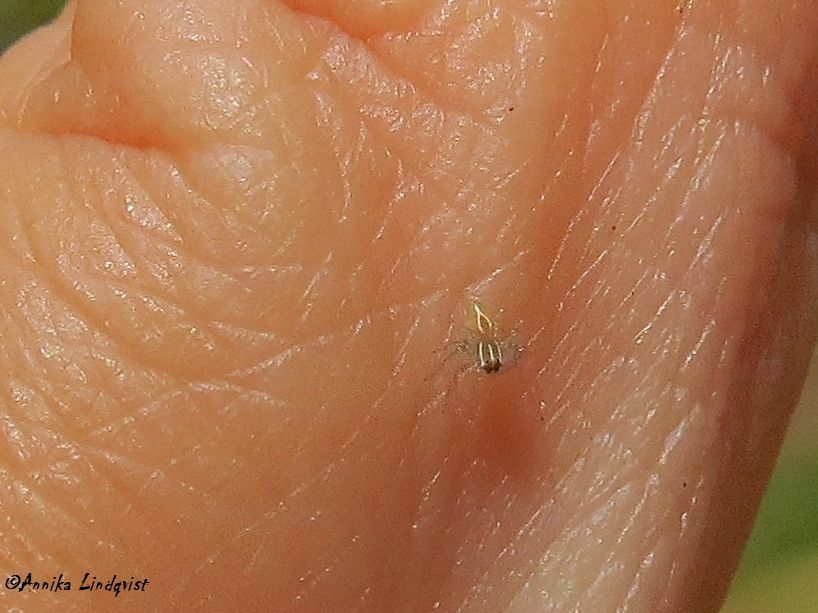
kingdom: Animalia
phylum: Arthropoda
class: Arachnida
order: Araneae
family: Oxyopidae
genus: Oxyopes
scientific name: Oxyopes salticus
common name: Lynx spiders
